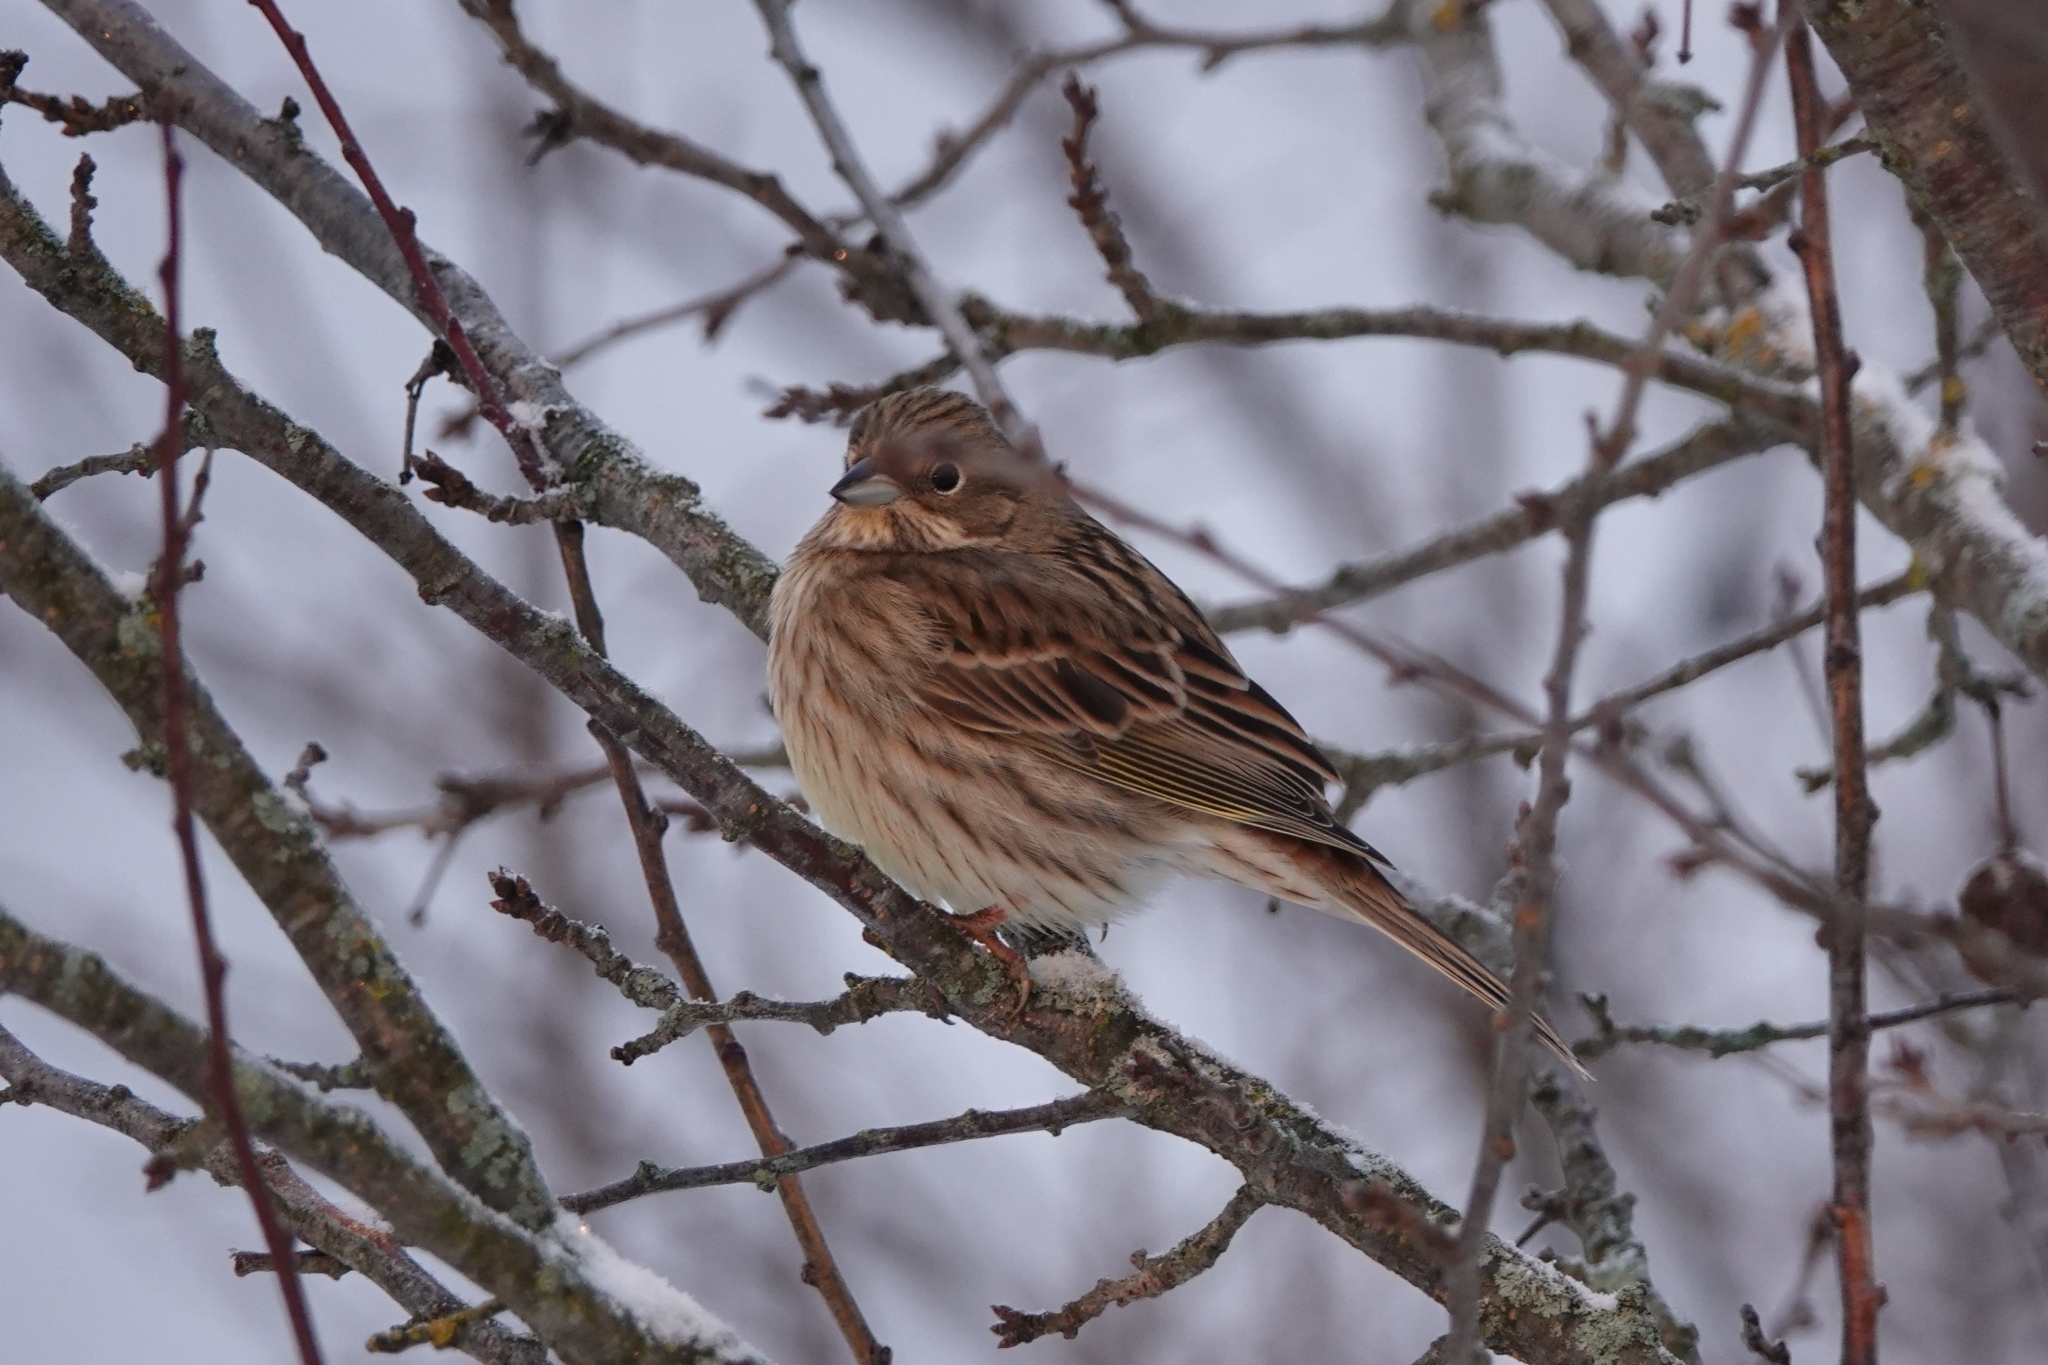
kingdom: Animalia
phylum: Chordata
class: Aves
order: Passeriformes
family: Emberizidae
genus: Emberiza
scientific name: Emberiza citrinella
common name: Yellowhammer
